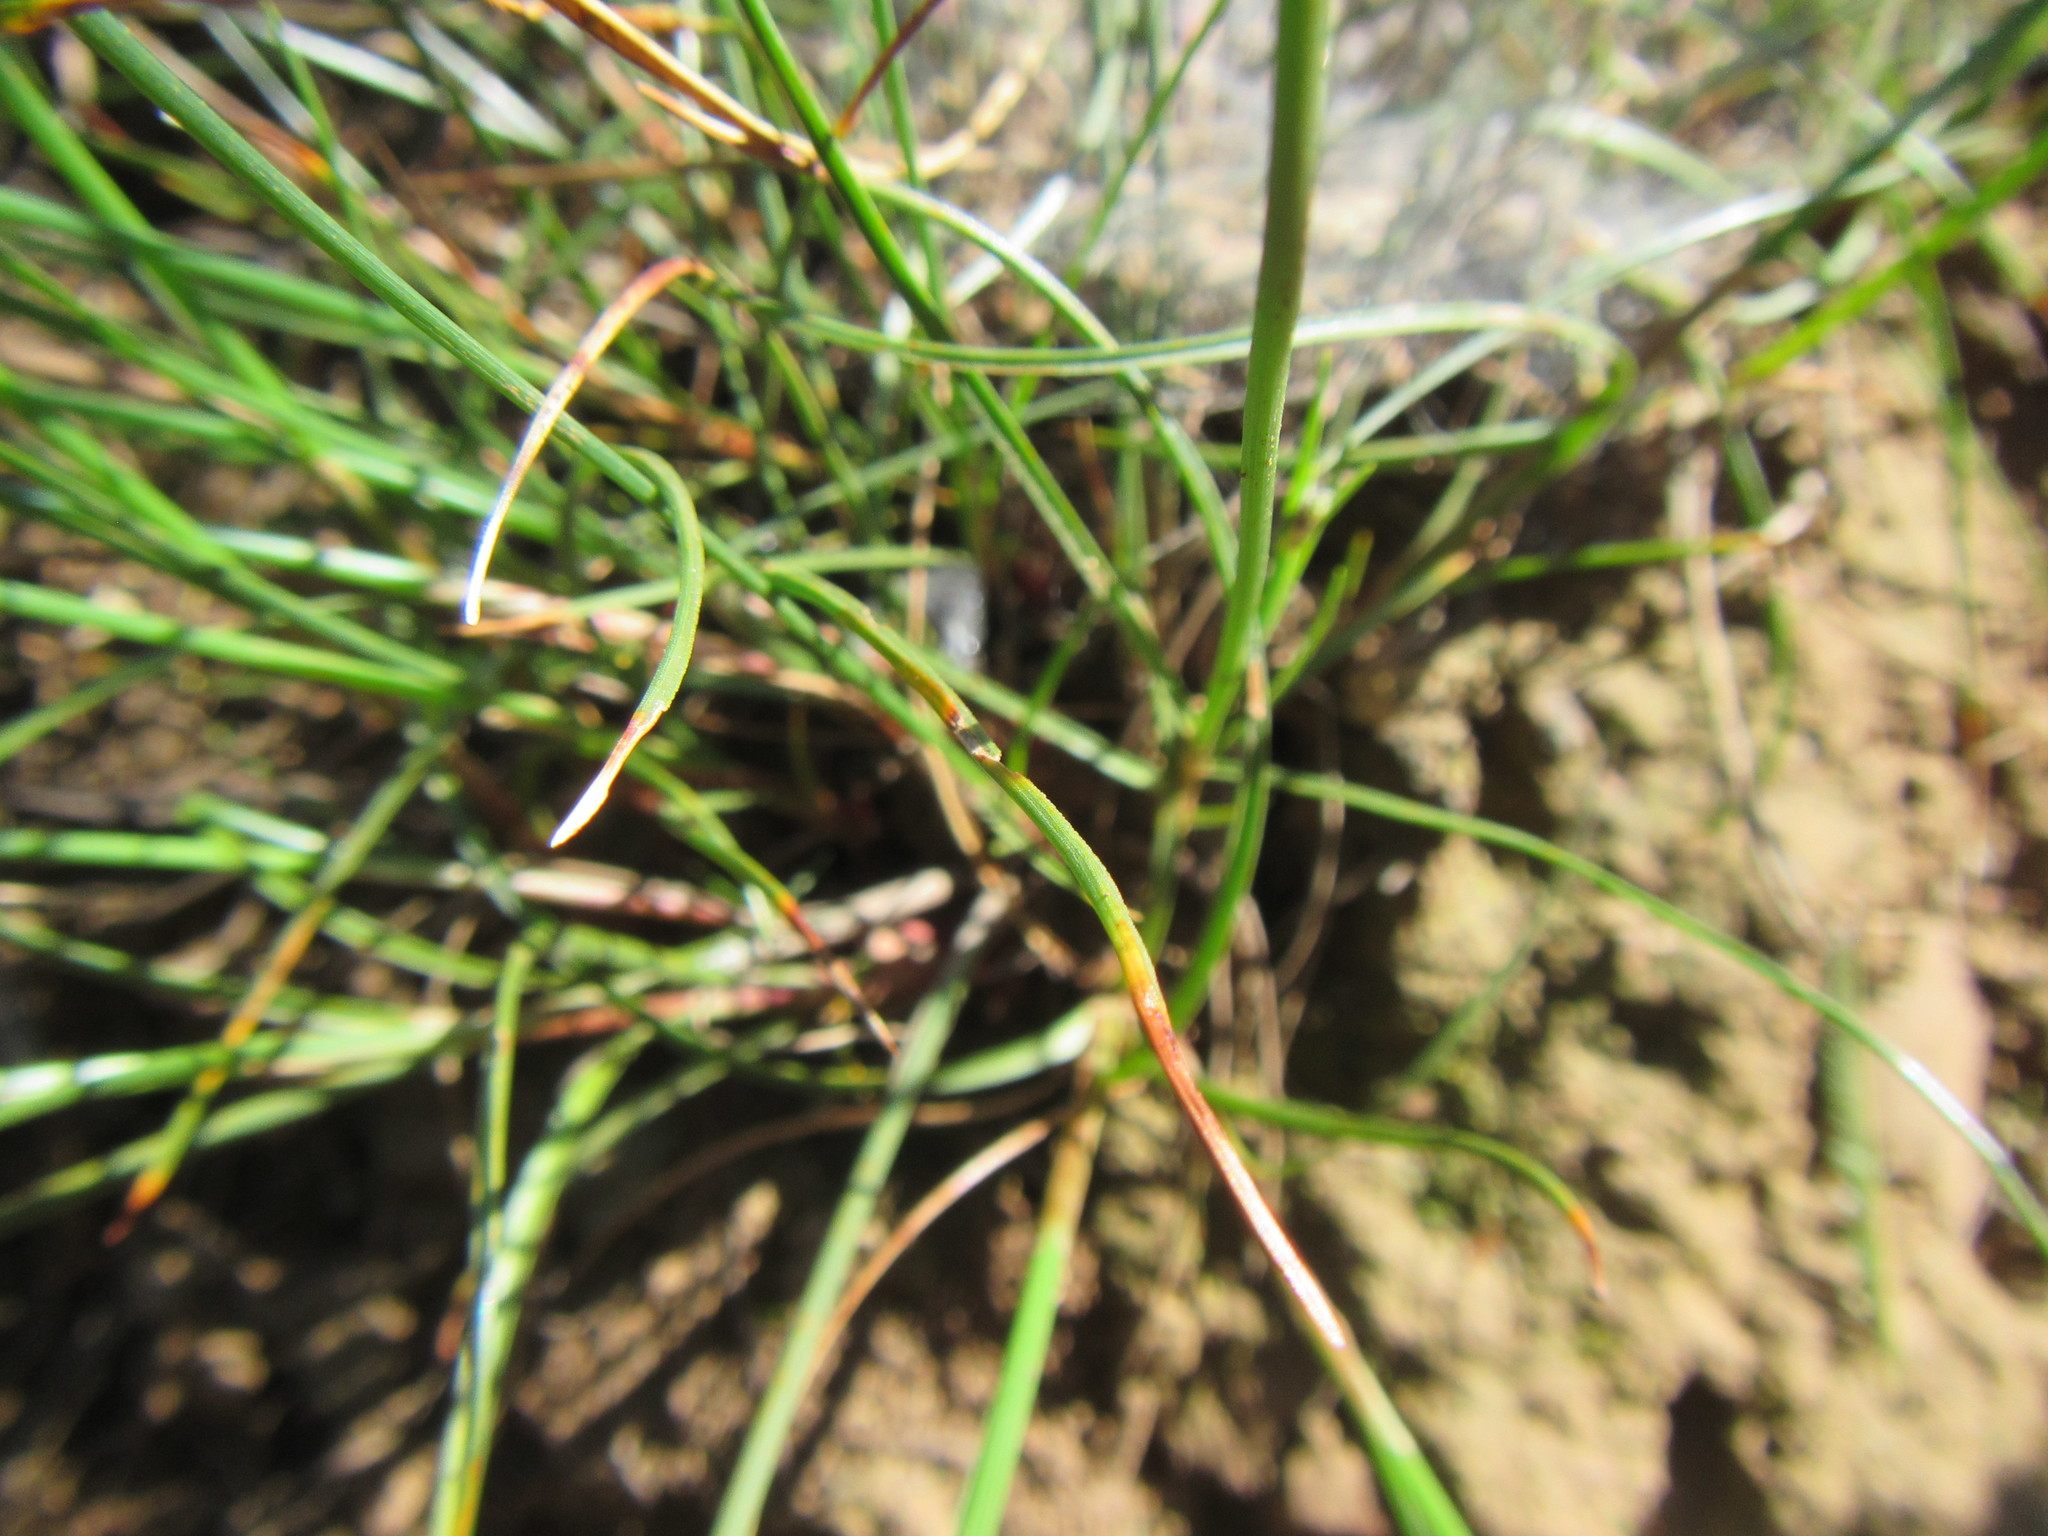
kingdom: Plantae
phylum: Tracheophyta
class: Liliopsida
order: Poales
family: Cyperaceae
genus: Ficinia
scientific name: Ficinia indica
